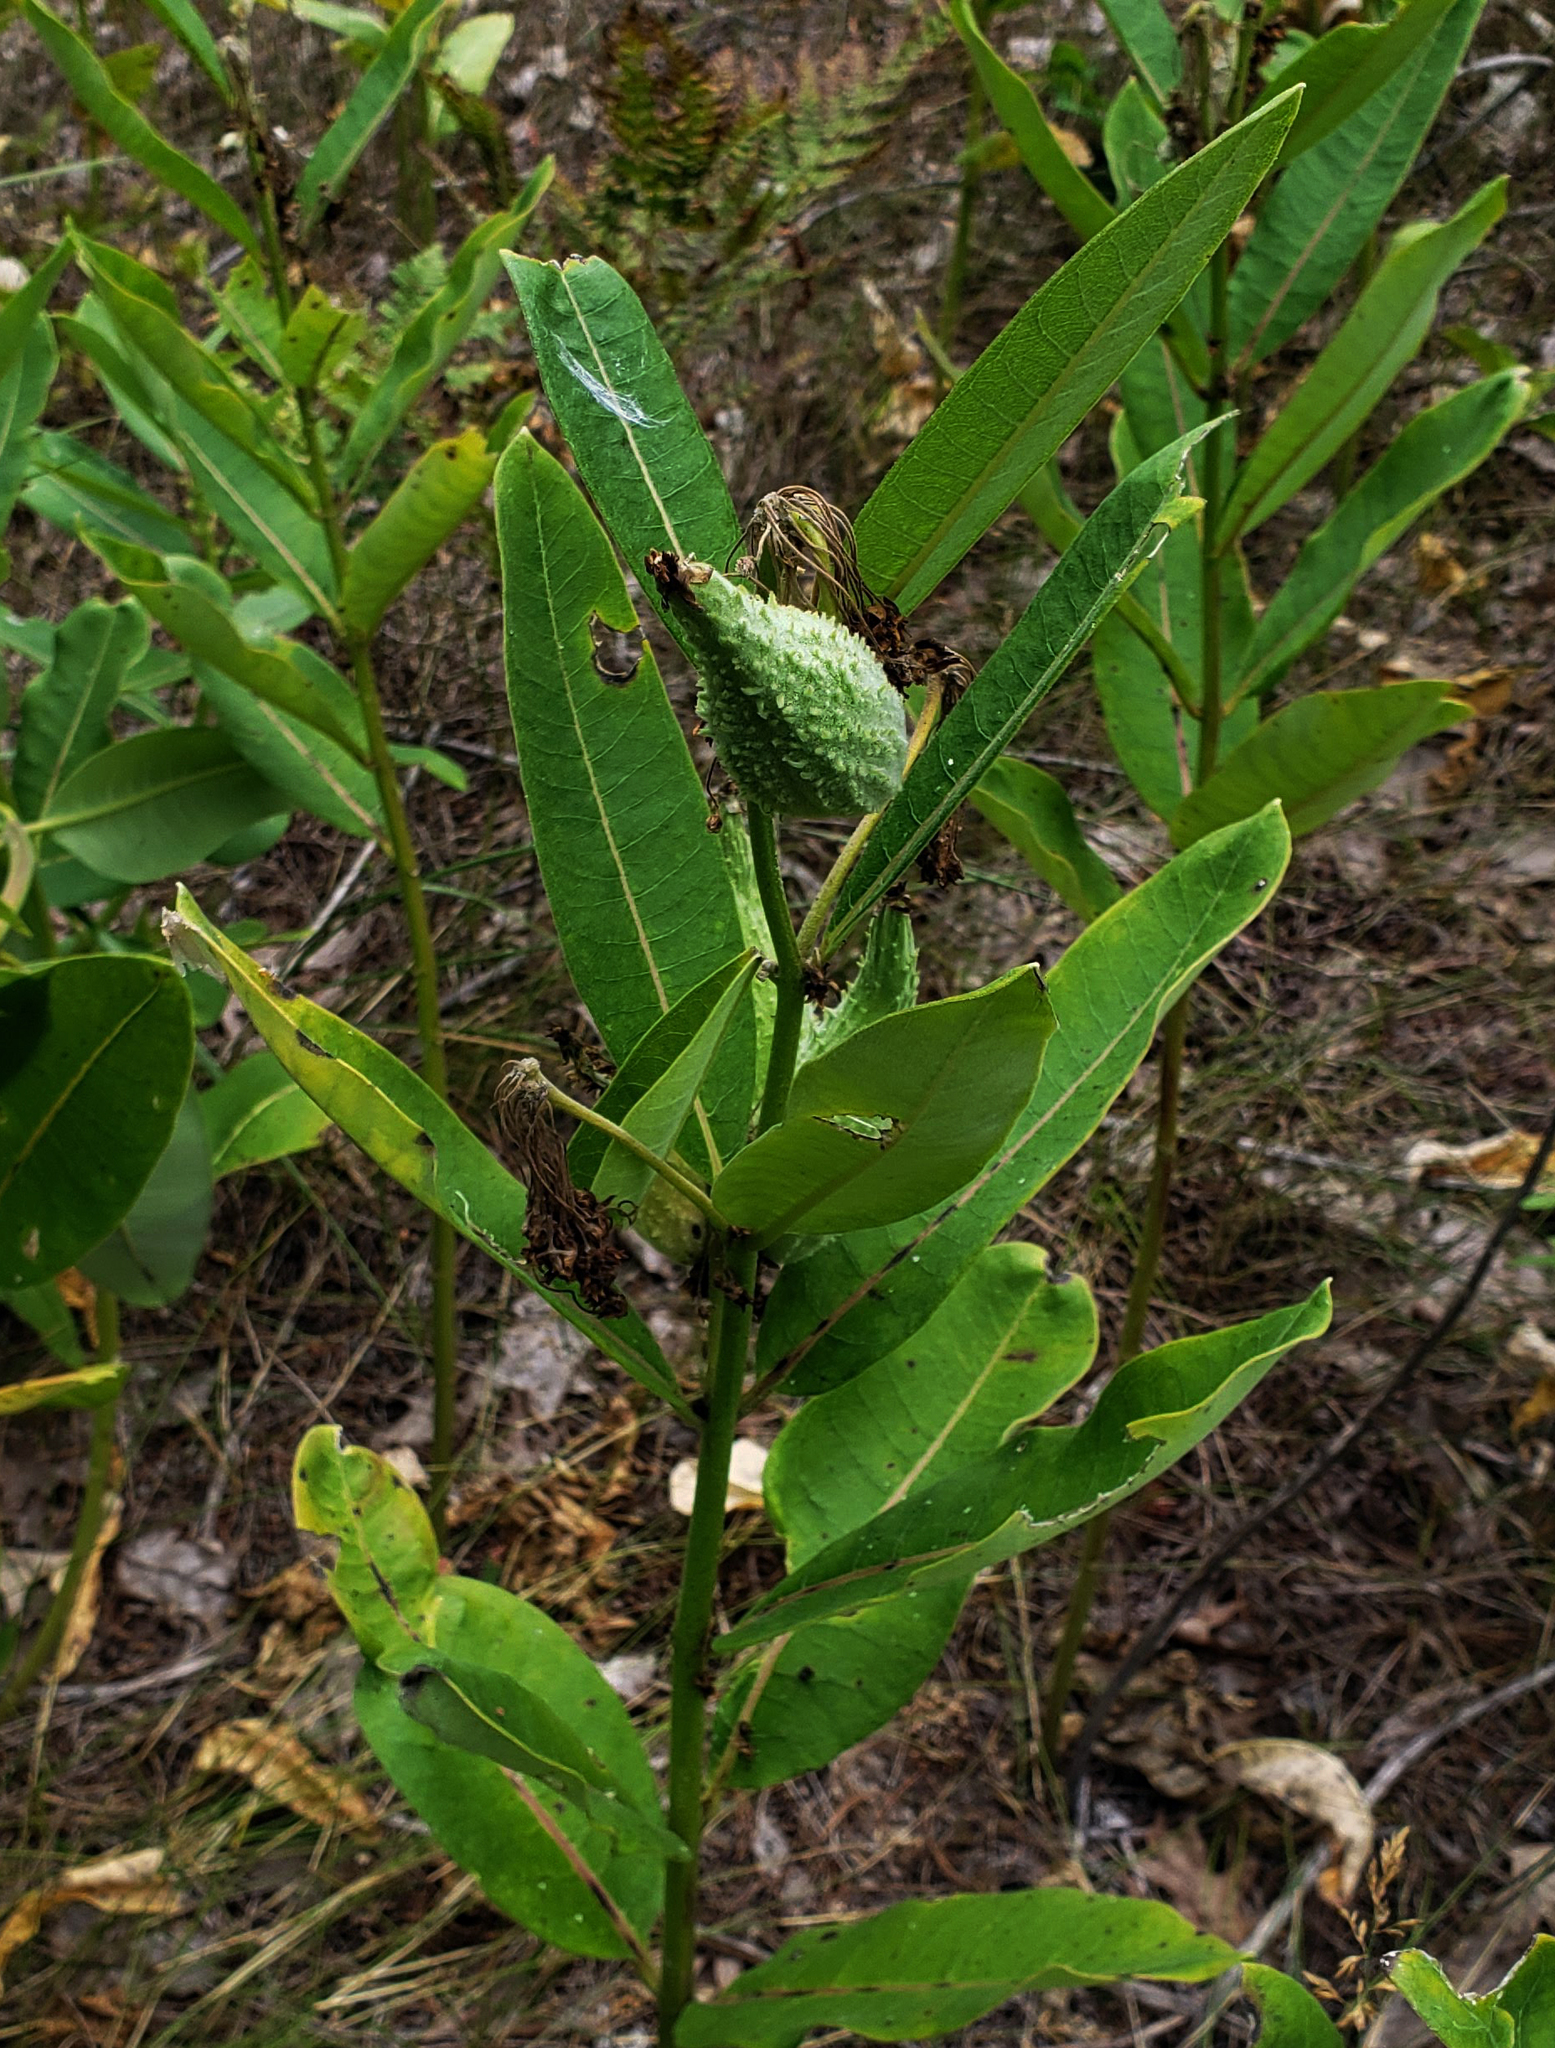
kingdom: Plantae
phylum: Tracheophyta
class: Magnoliopsida
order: Gentianales
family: Apocynaceae
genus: Asclepias
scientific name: Asclepias syriaca
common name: Common milkweed
